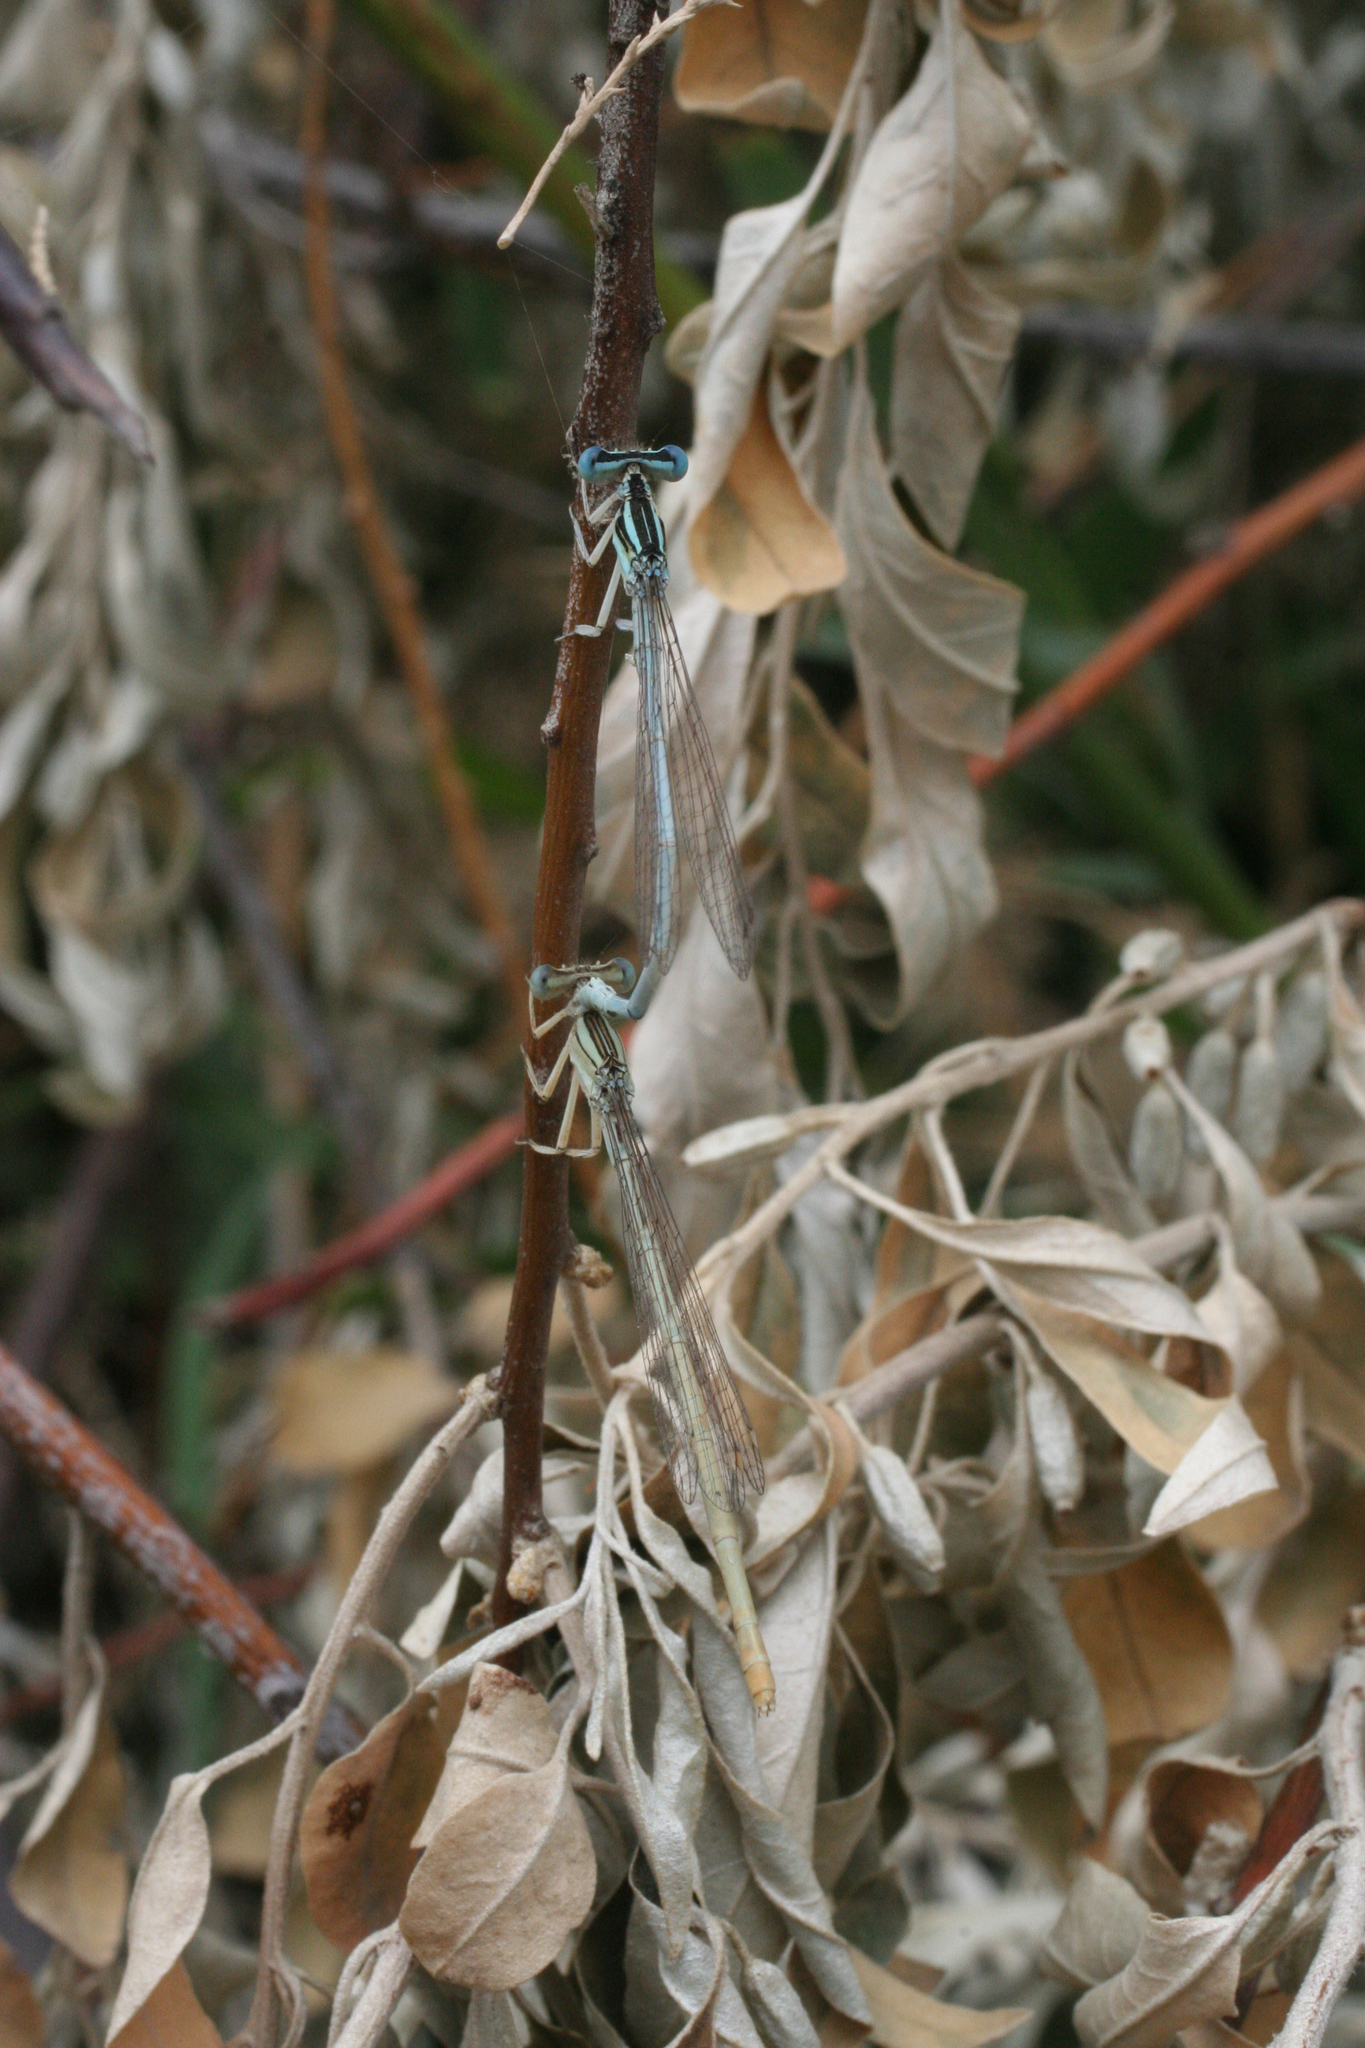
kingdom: Animalia
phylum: Arthropoda
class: Insecta
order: Odonata
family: Platycnemididae
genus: Platycnemis
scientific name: Platycnemis dealbata
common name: Ivory featherleg
